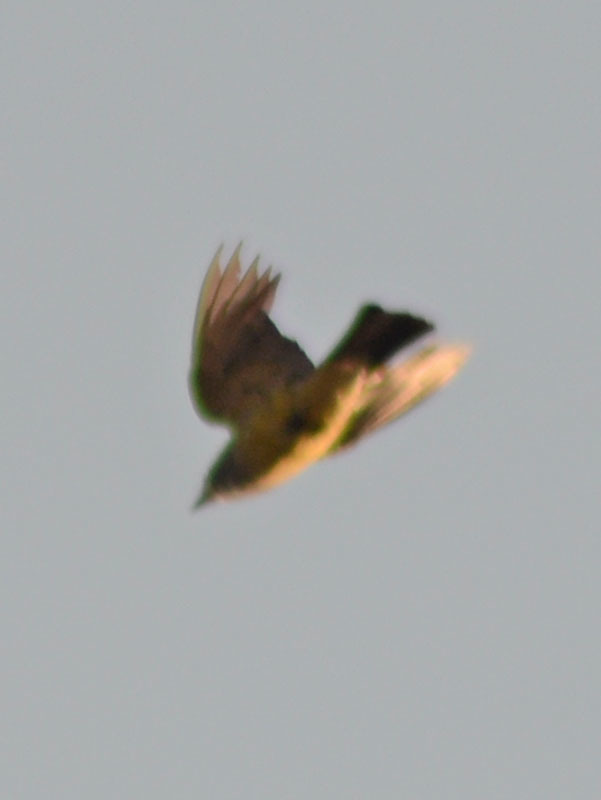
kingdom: Animalia
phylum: Chordata
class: Aves
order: Passeriformes
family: Tyrannidae
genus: Tyrannus
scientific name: Tyrannus vociferans
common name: Cassin's kingbird
